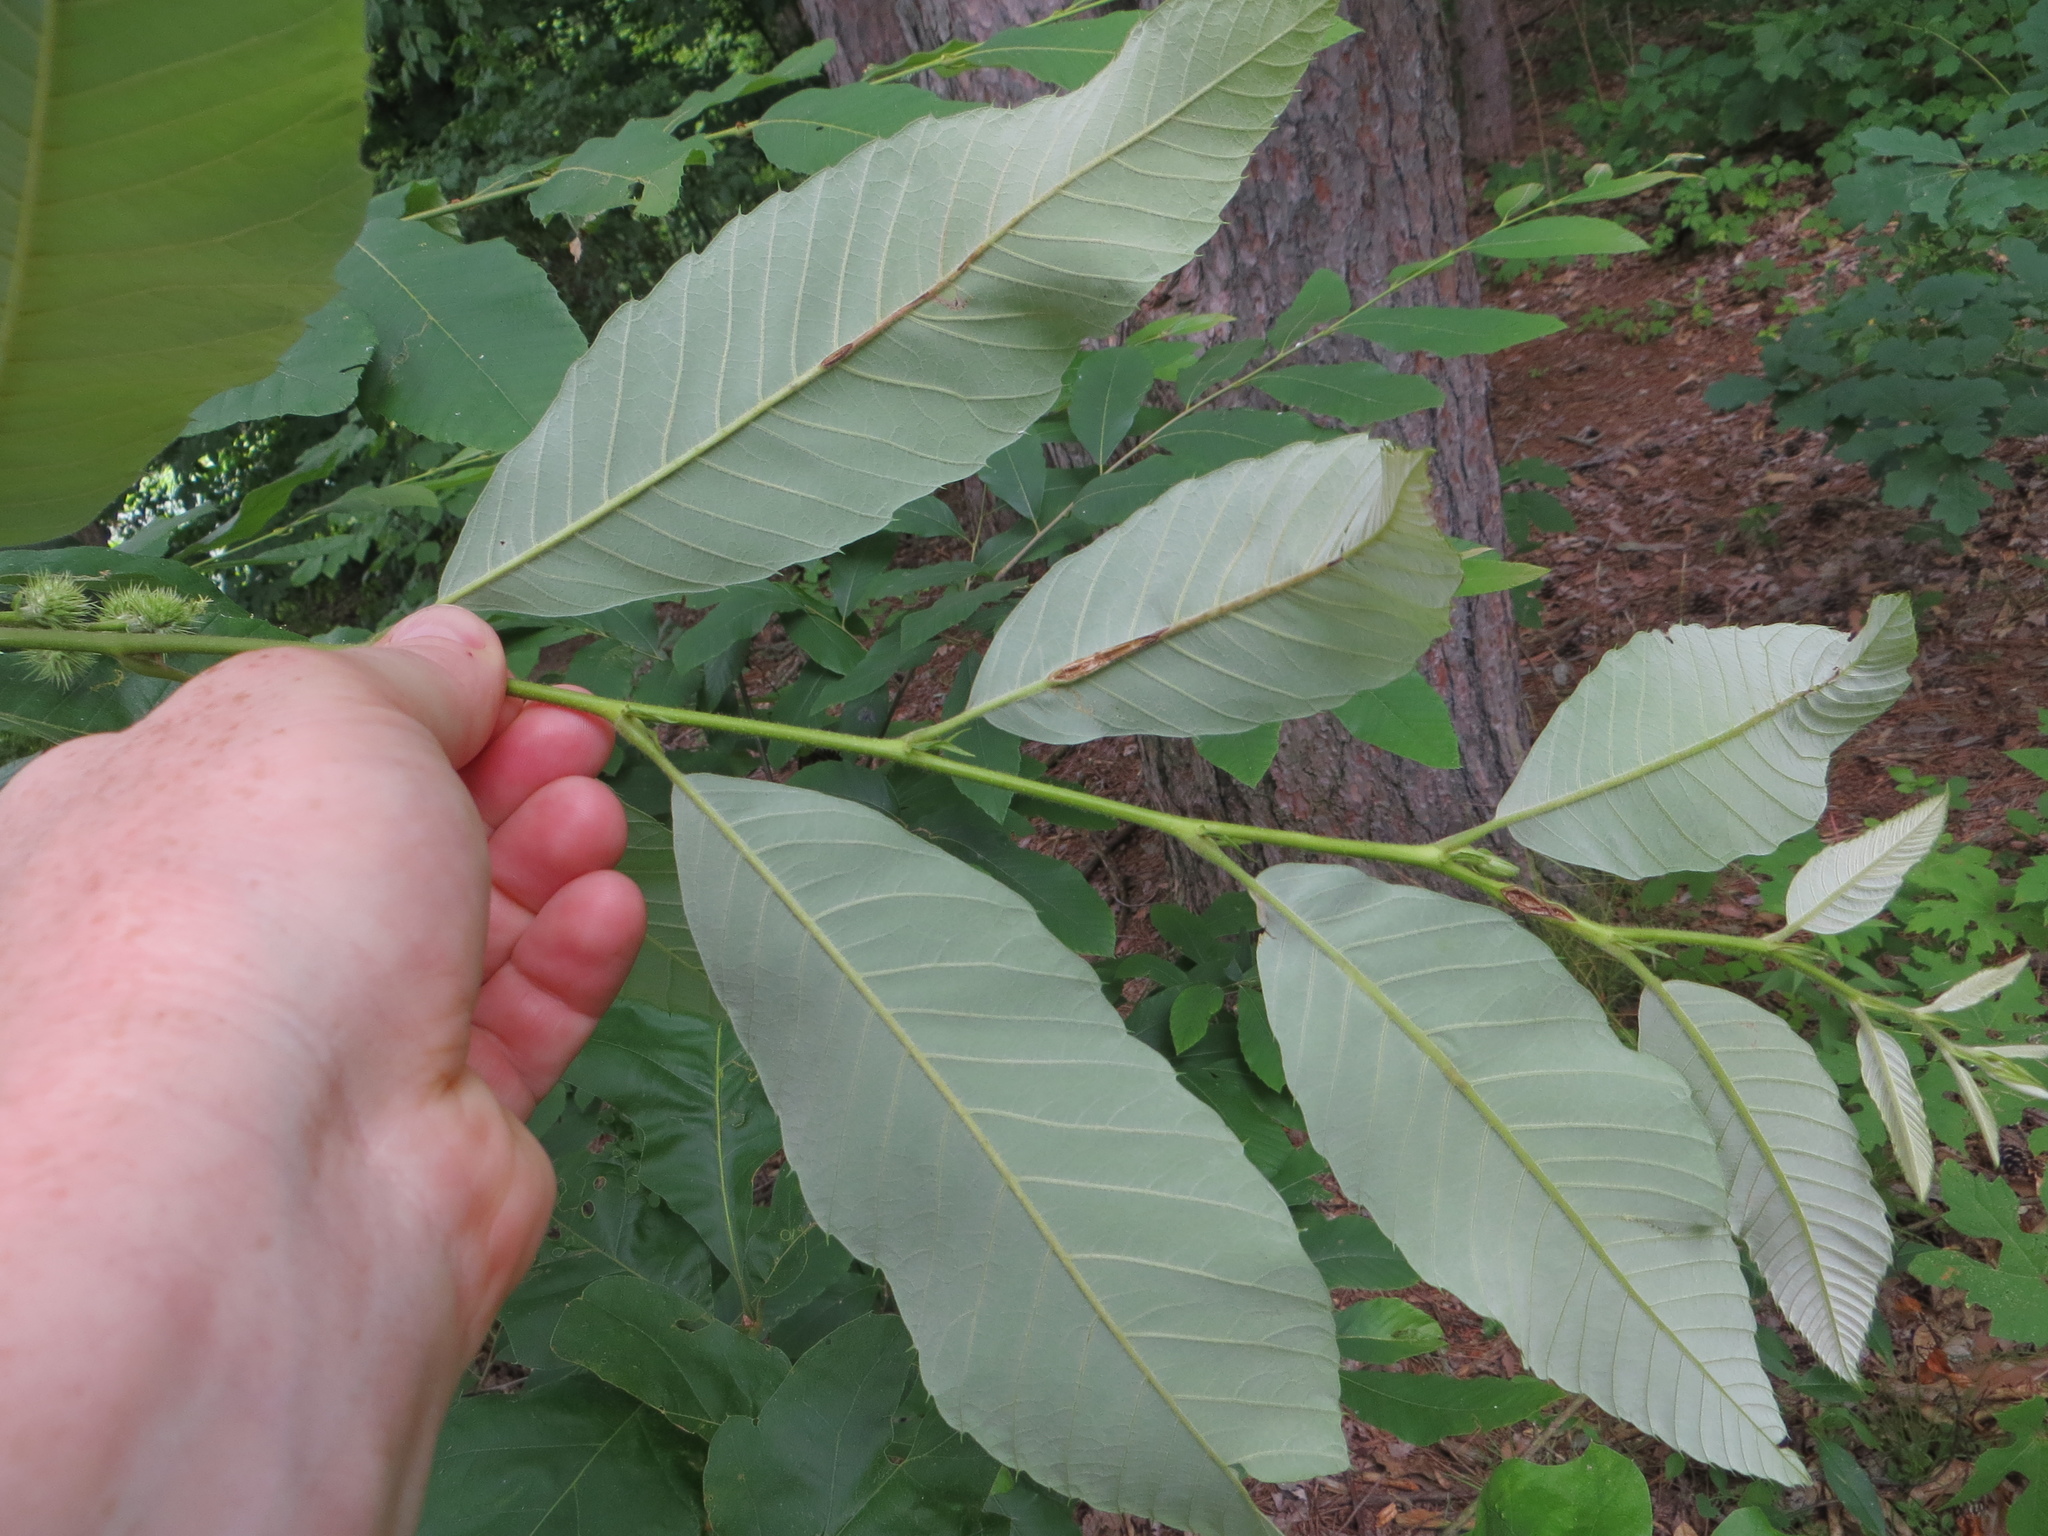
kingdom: Plantae
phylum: Tracheophyta
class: Magnoliopsida
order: Fagales
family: Fagaceae
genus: Castanea
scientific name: Castanea pumila
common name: Chinkapin
